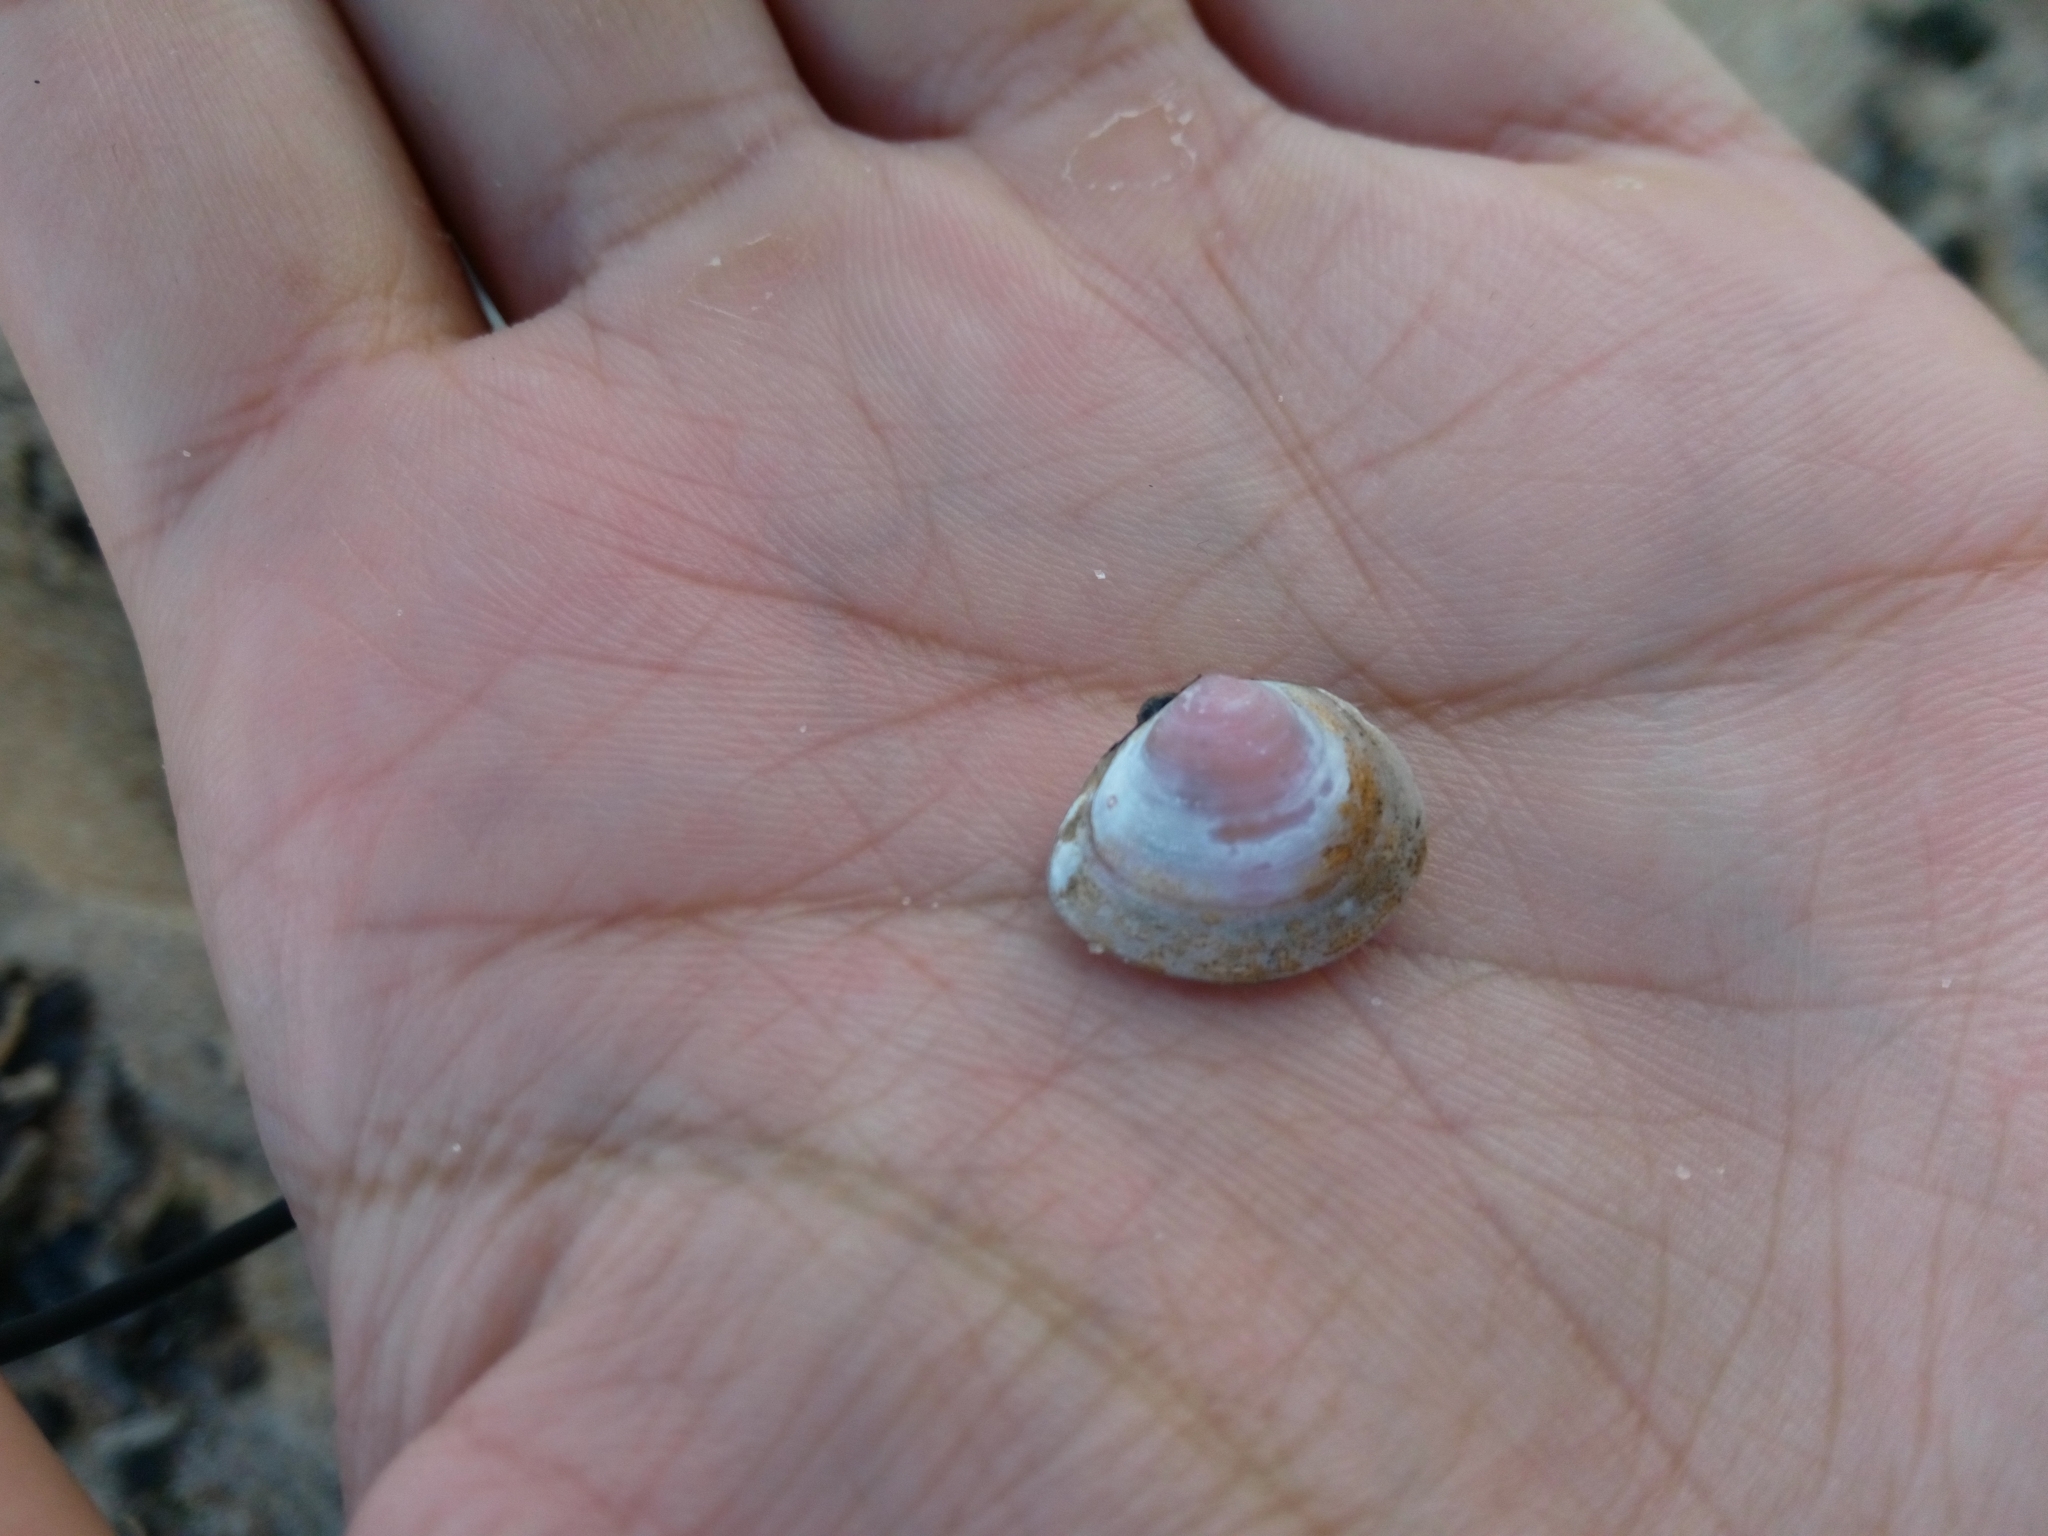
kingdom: Animalia
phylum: Mollusca
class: Bivalvia
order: Cardiida
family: Tellinidae
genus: Macoma
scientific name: Macoma balthica
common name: Baltic tellin
